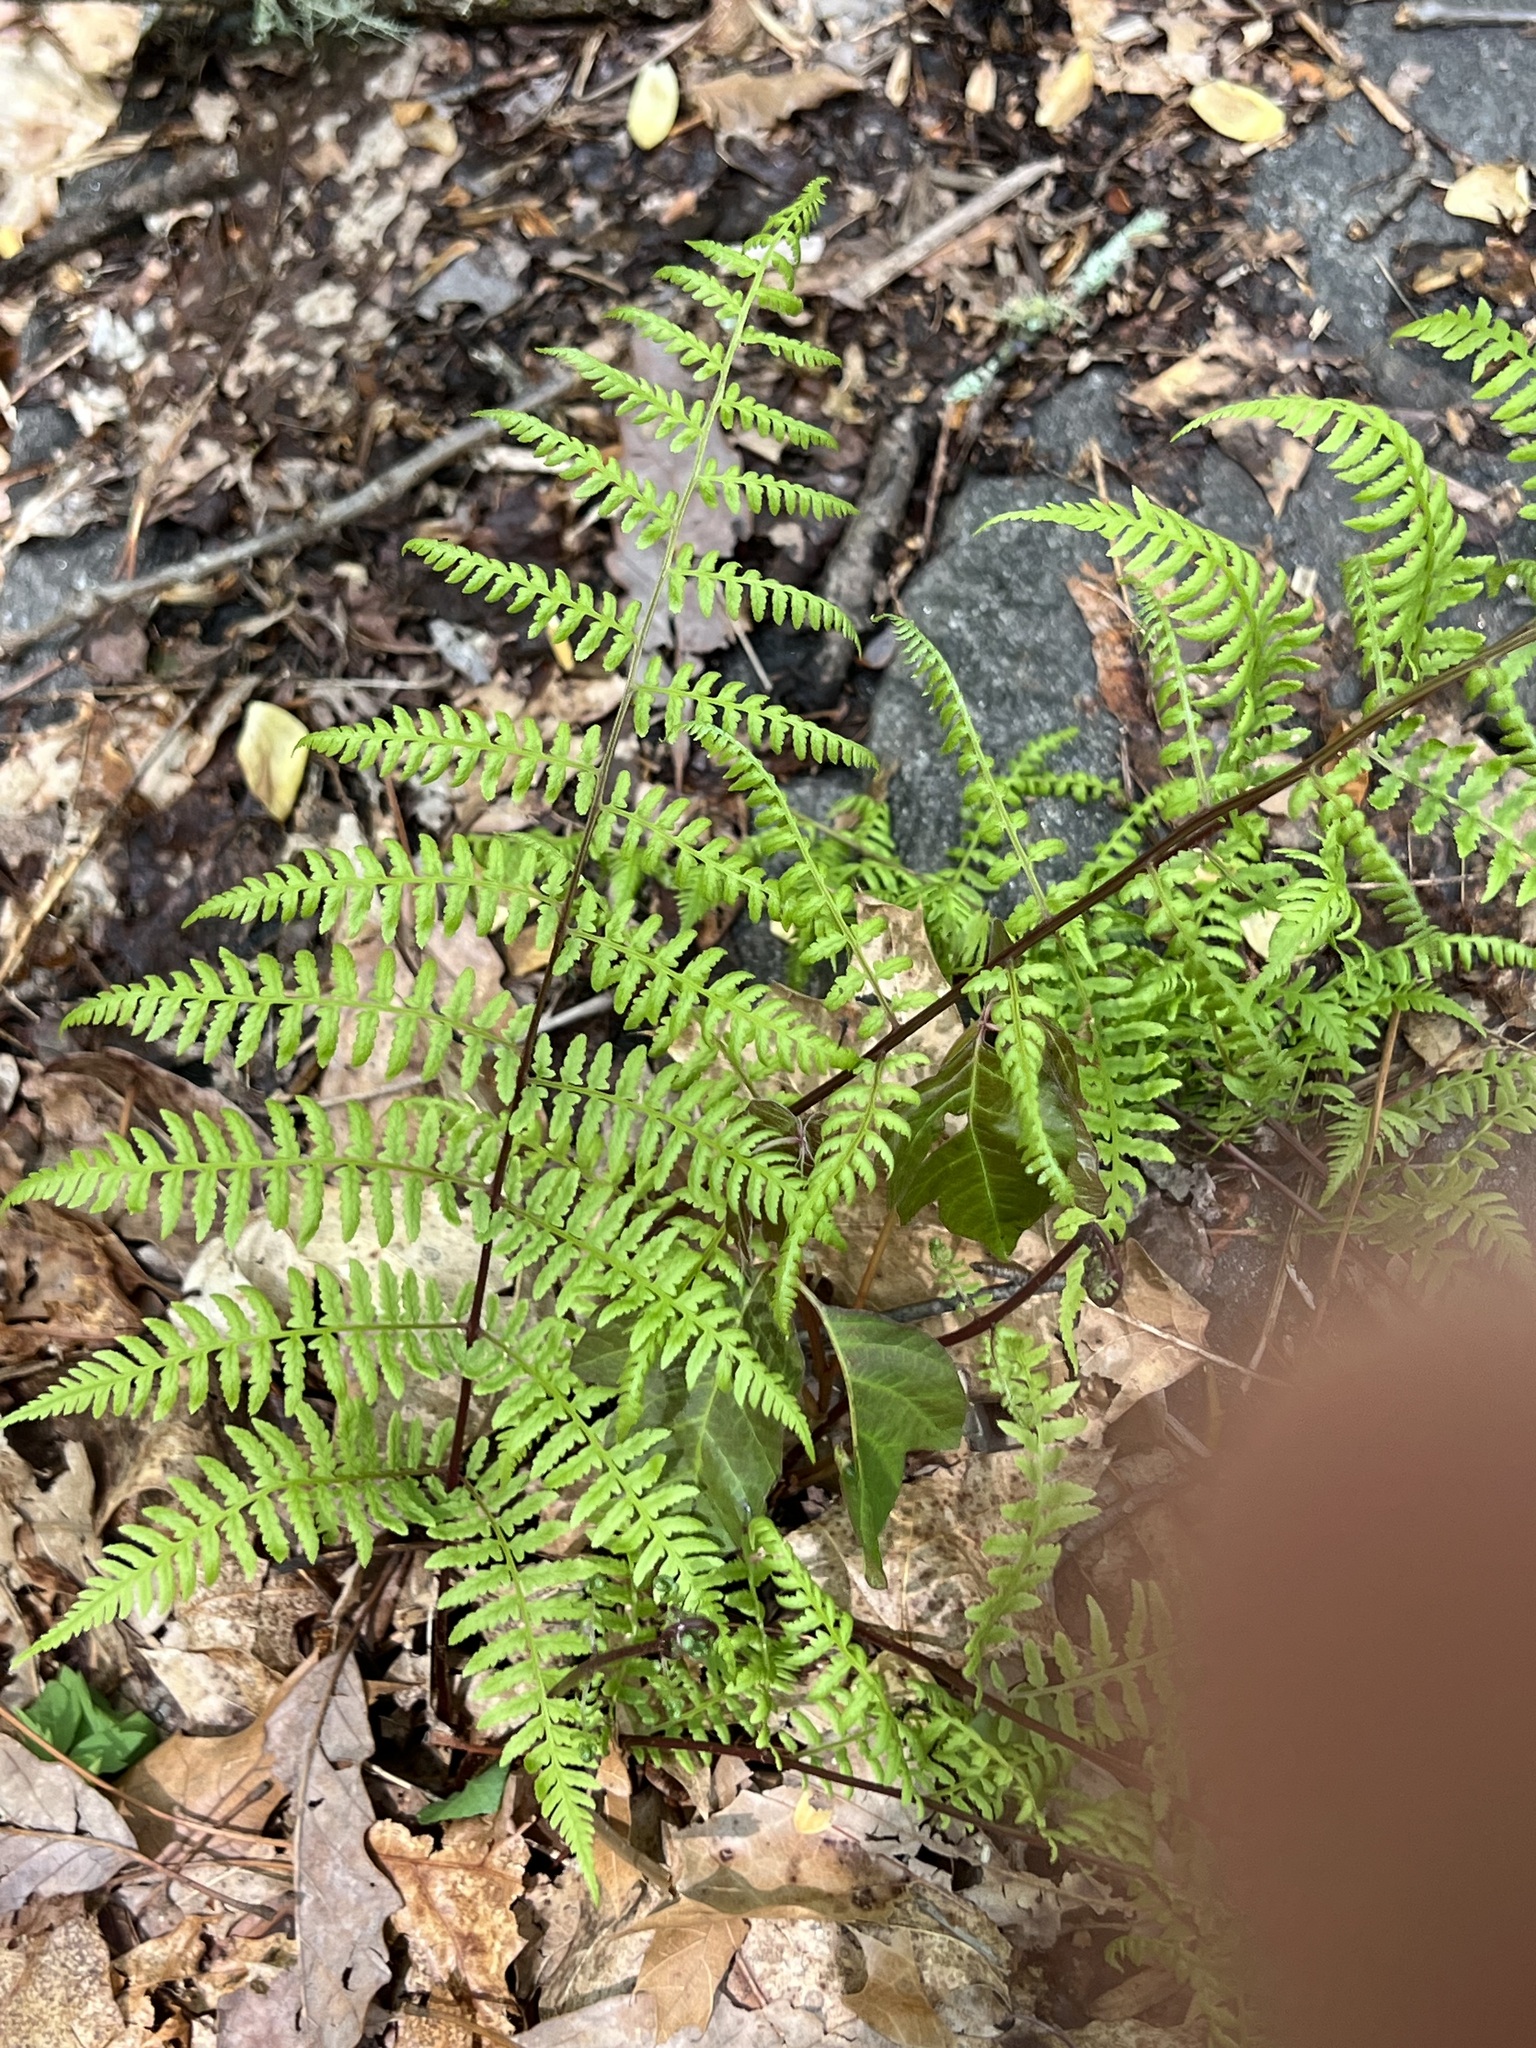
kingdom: Plantae
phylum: Tracheophyta
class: Polypodiopsida
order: Polypodiales
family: Athyriaceae
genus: Athyrium
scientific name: Athyrium asplenioides
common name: Southern lady fern
